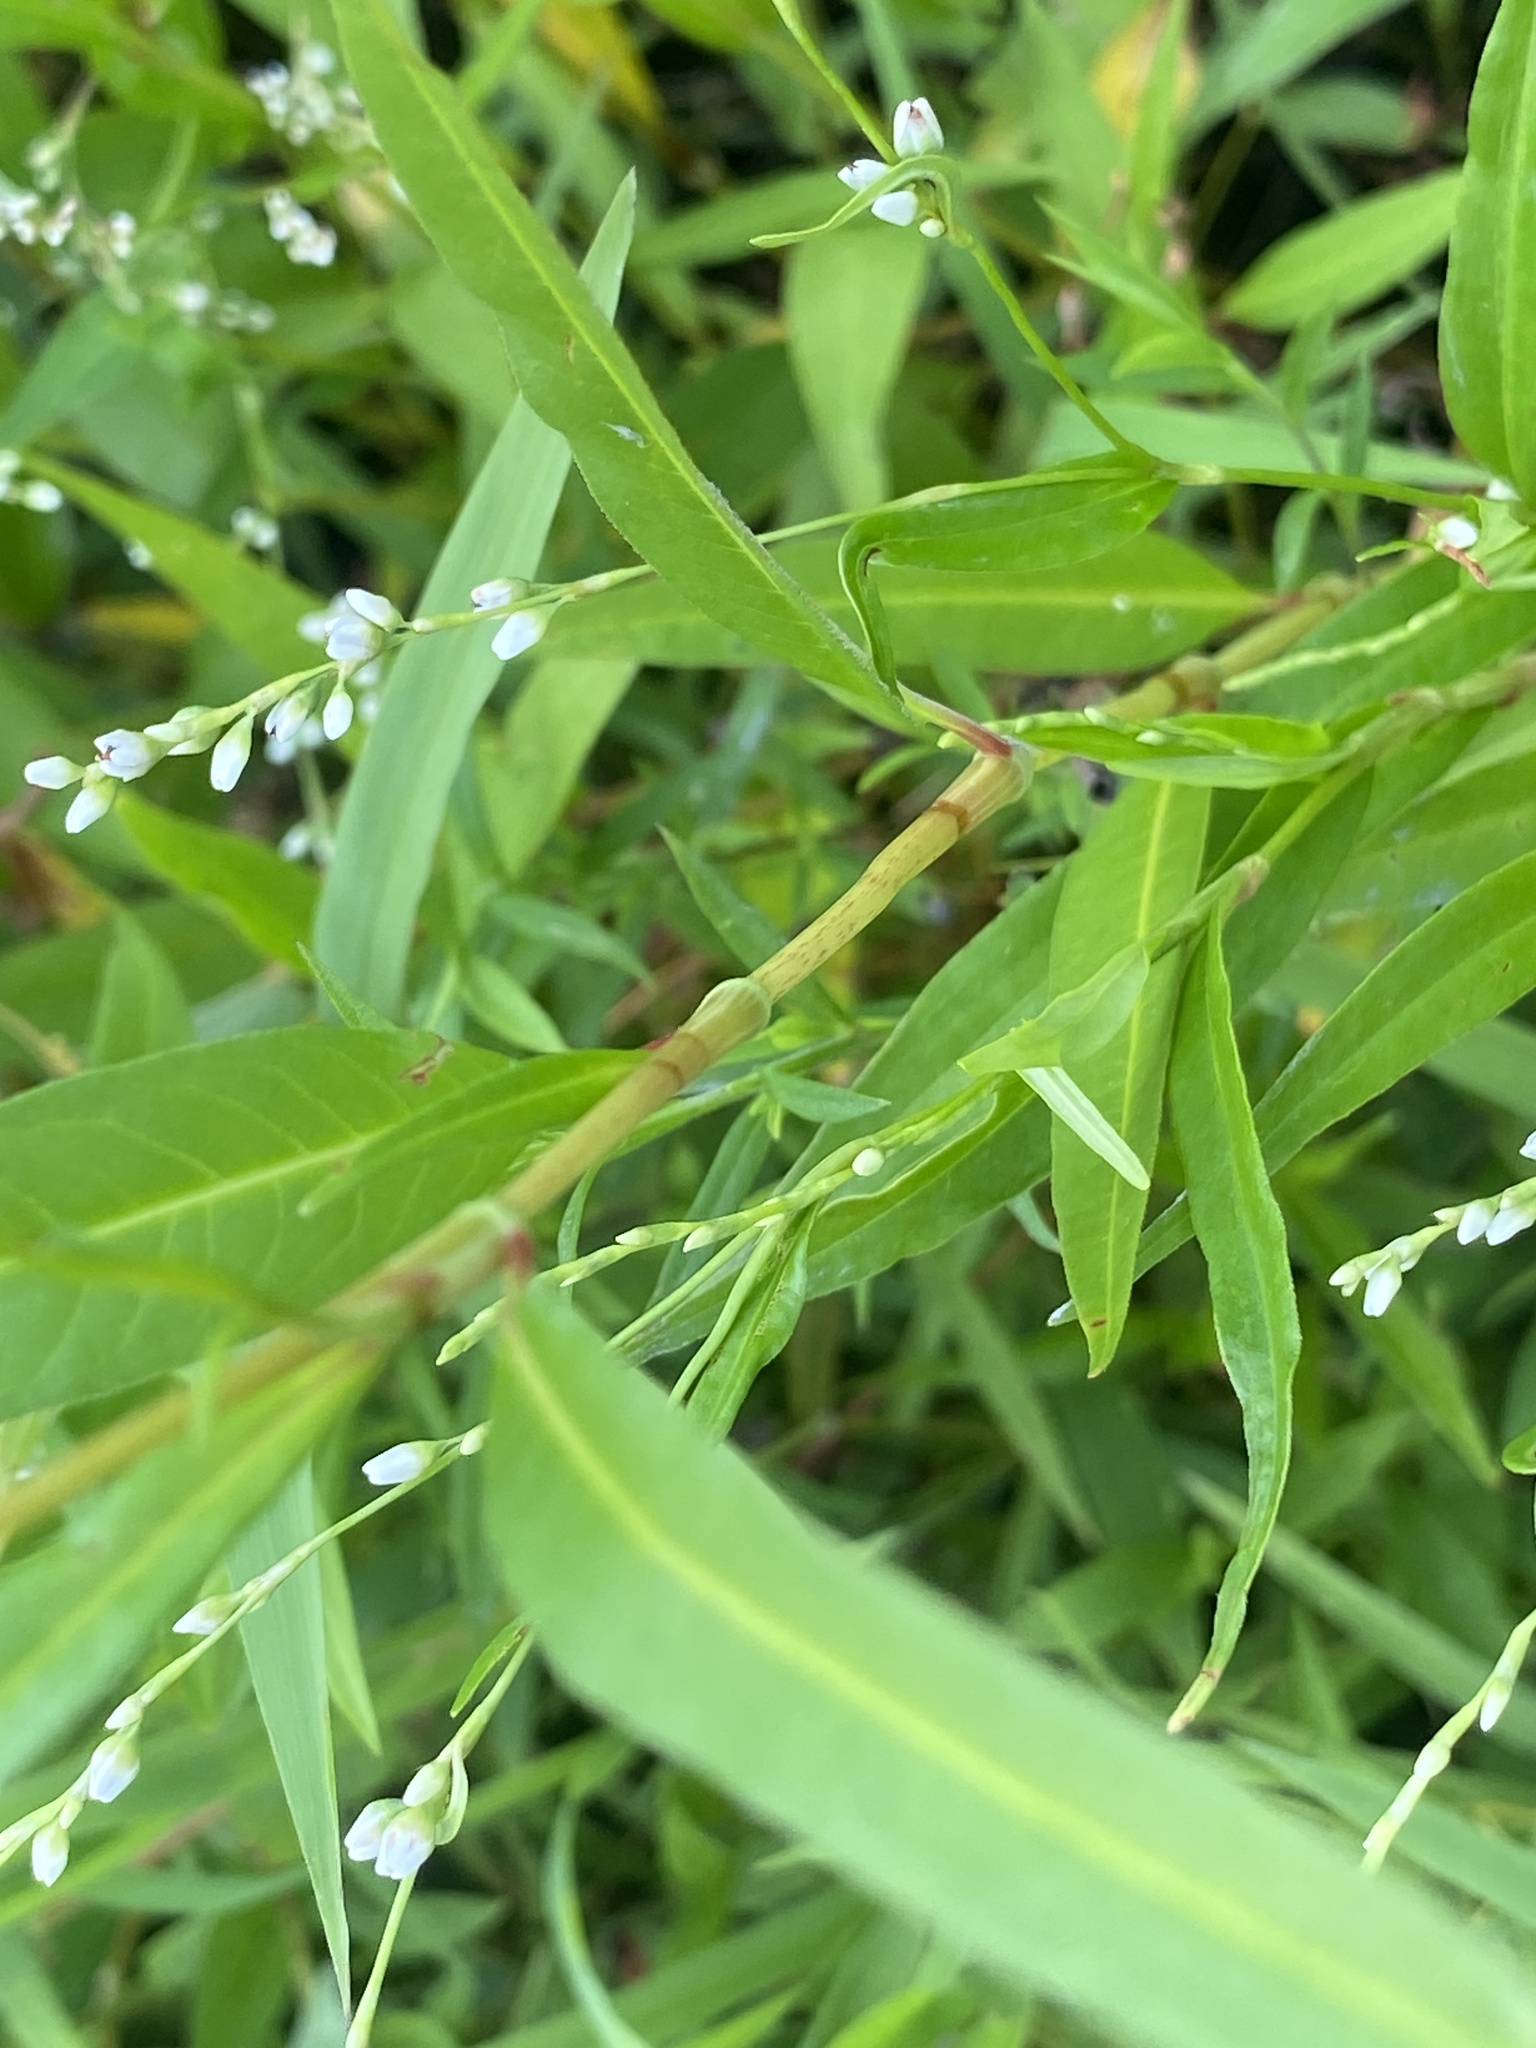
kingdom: Plantae
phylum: Tracheophyta
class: Magnoliopsida
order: Caryophyllales
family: Polygonaceae
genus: Persicaria
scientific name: Persicaria pensylvanica
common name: Pinkweed
